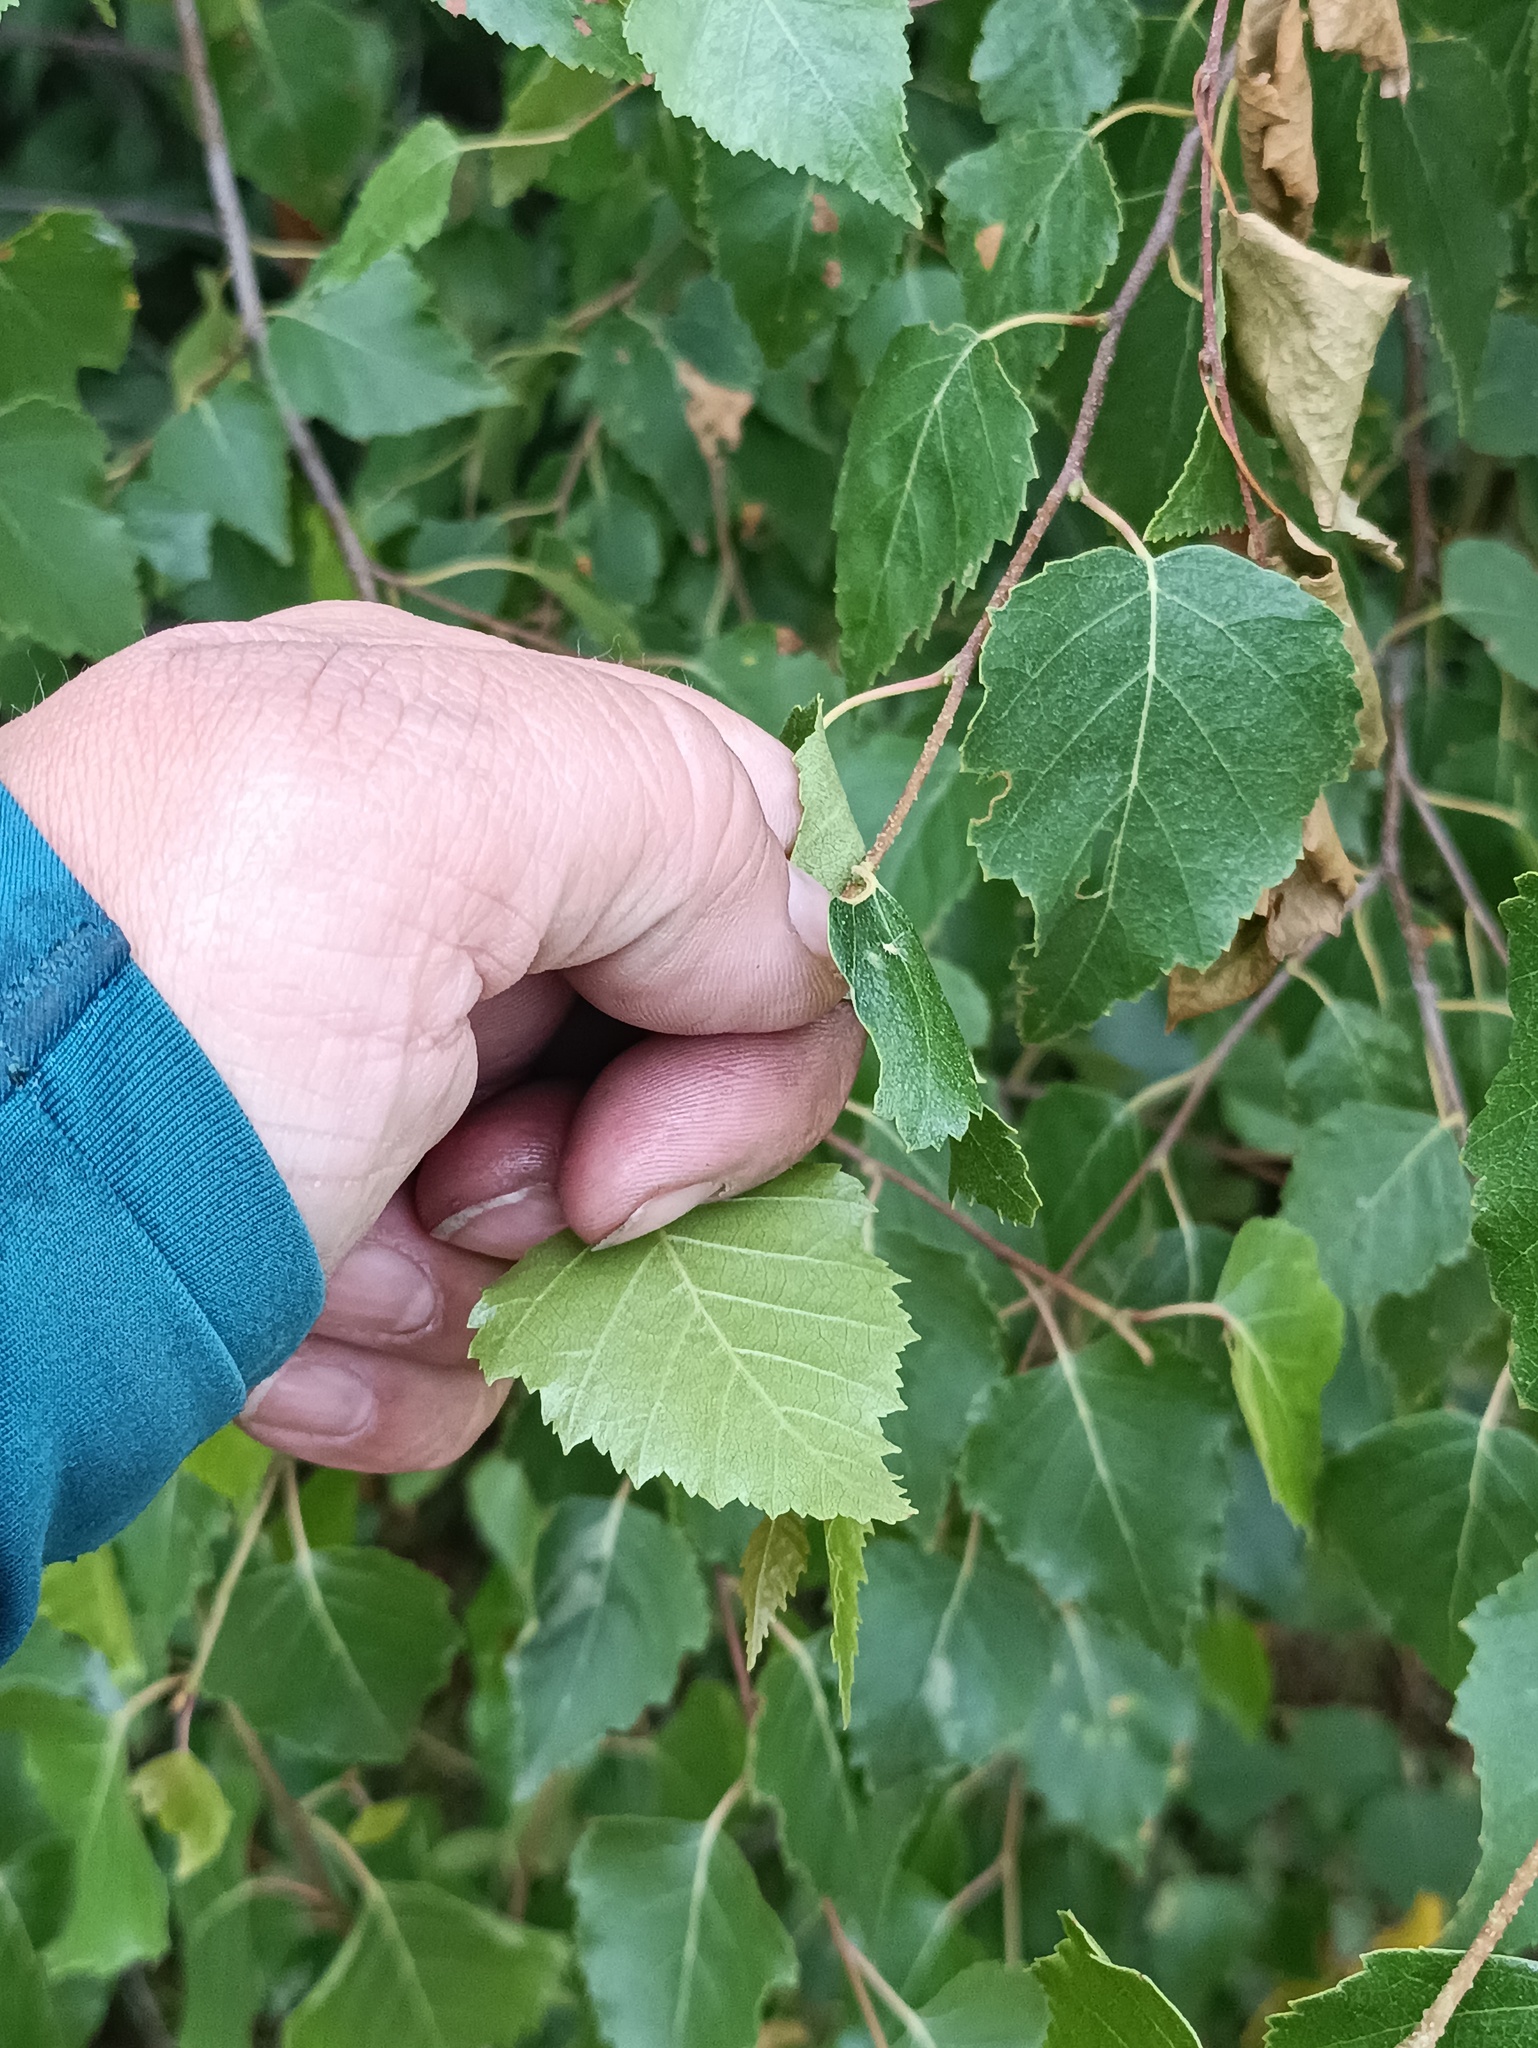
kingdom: Plantae
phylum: Tracheophyta
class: Magnoliopsida
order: Fagales
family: Betulaceae
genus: Betula
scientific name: Betula pendula
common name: Silver birch
